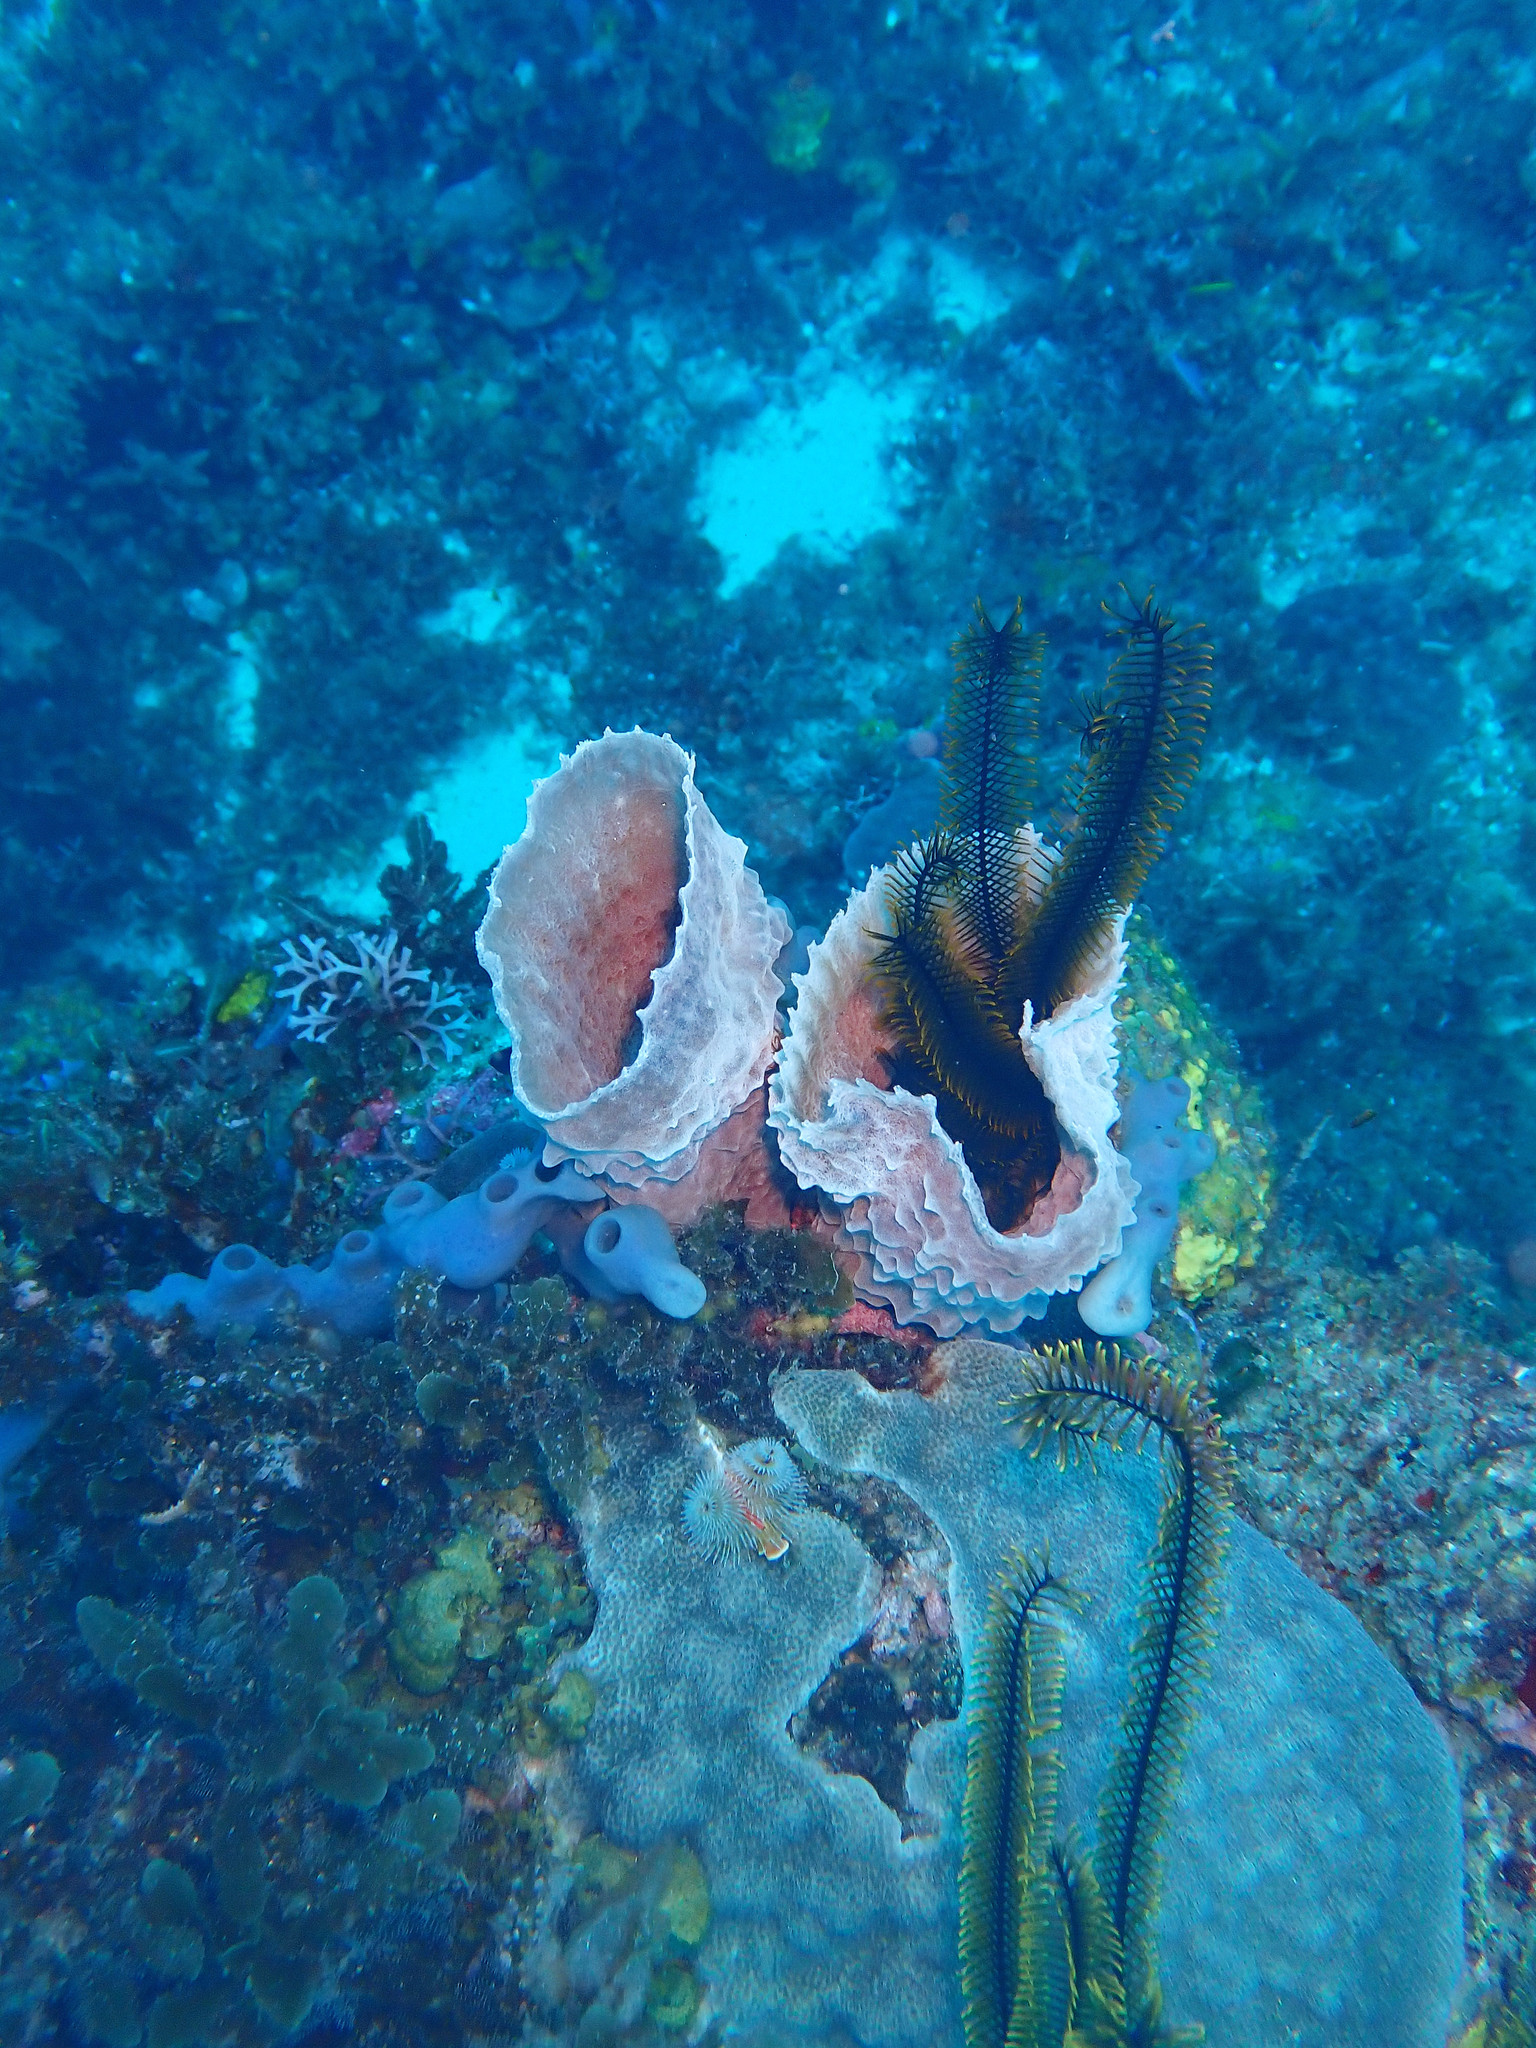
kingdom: Animalia
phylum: Porifera
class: Demospongiae
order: Haplosclerida
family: Callyspongiidae
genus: Callyspongia
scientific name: Callyspongia plicifera
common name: Azure vase sponge
